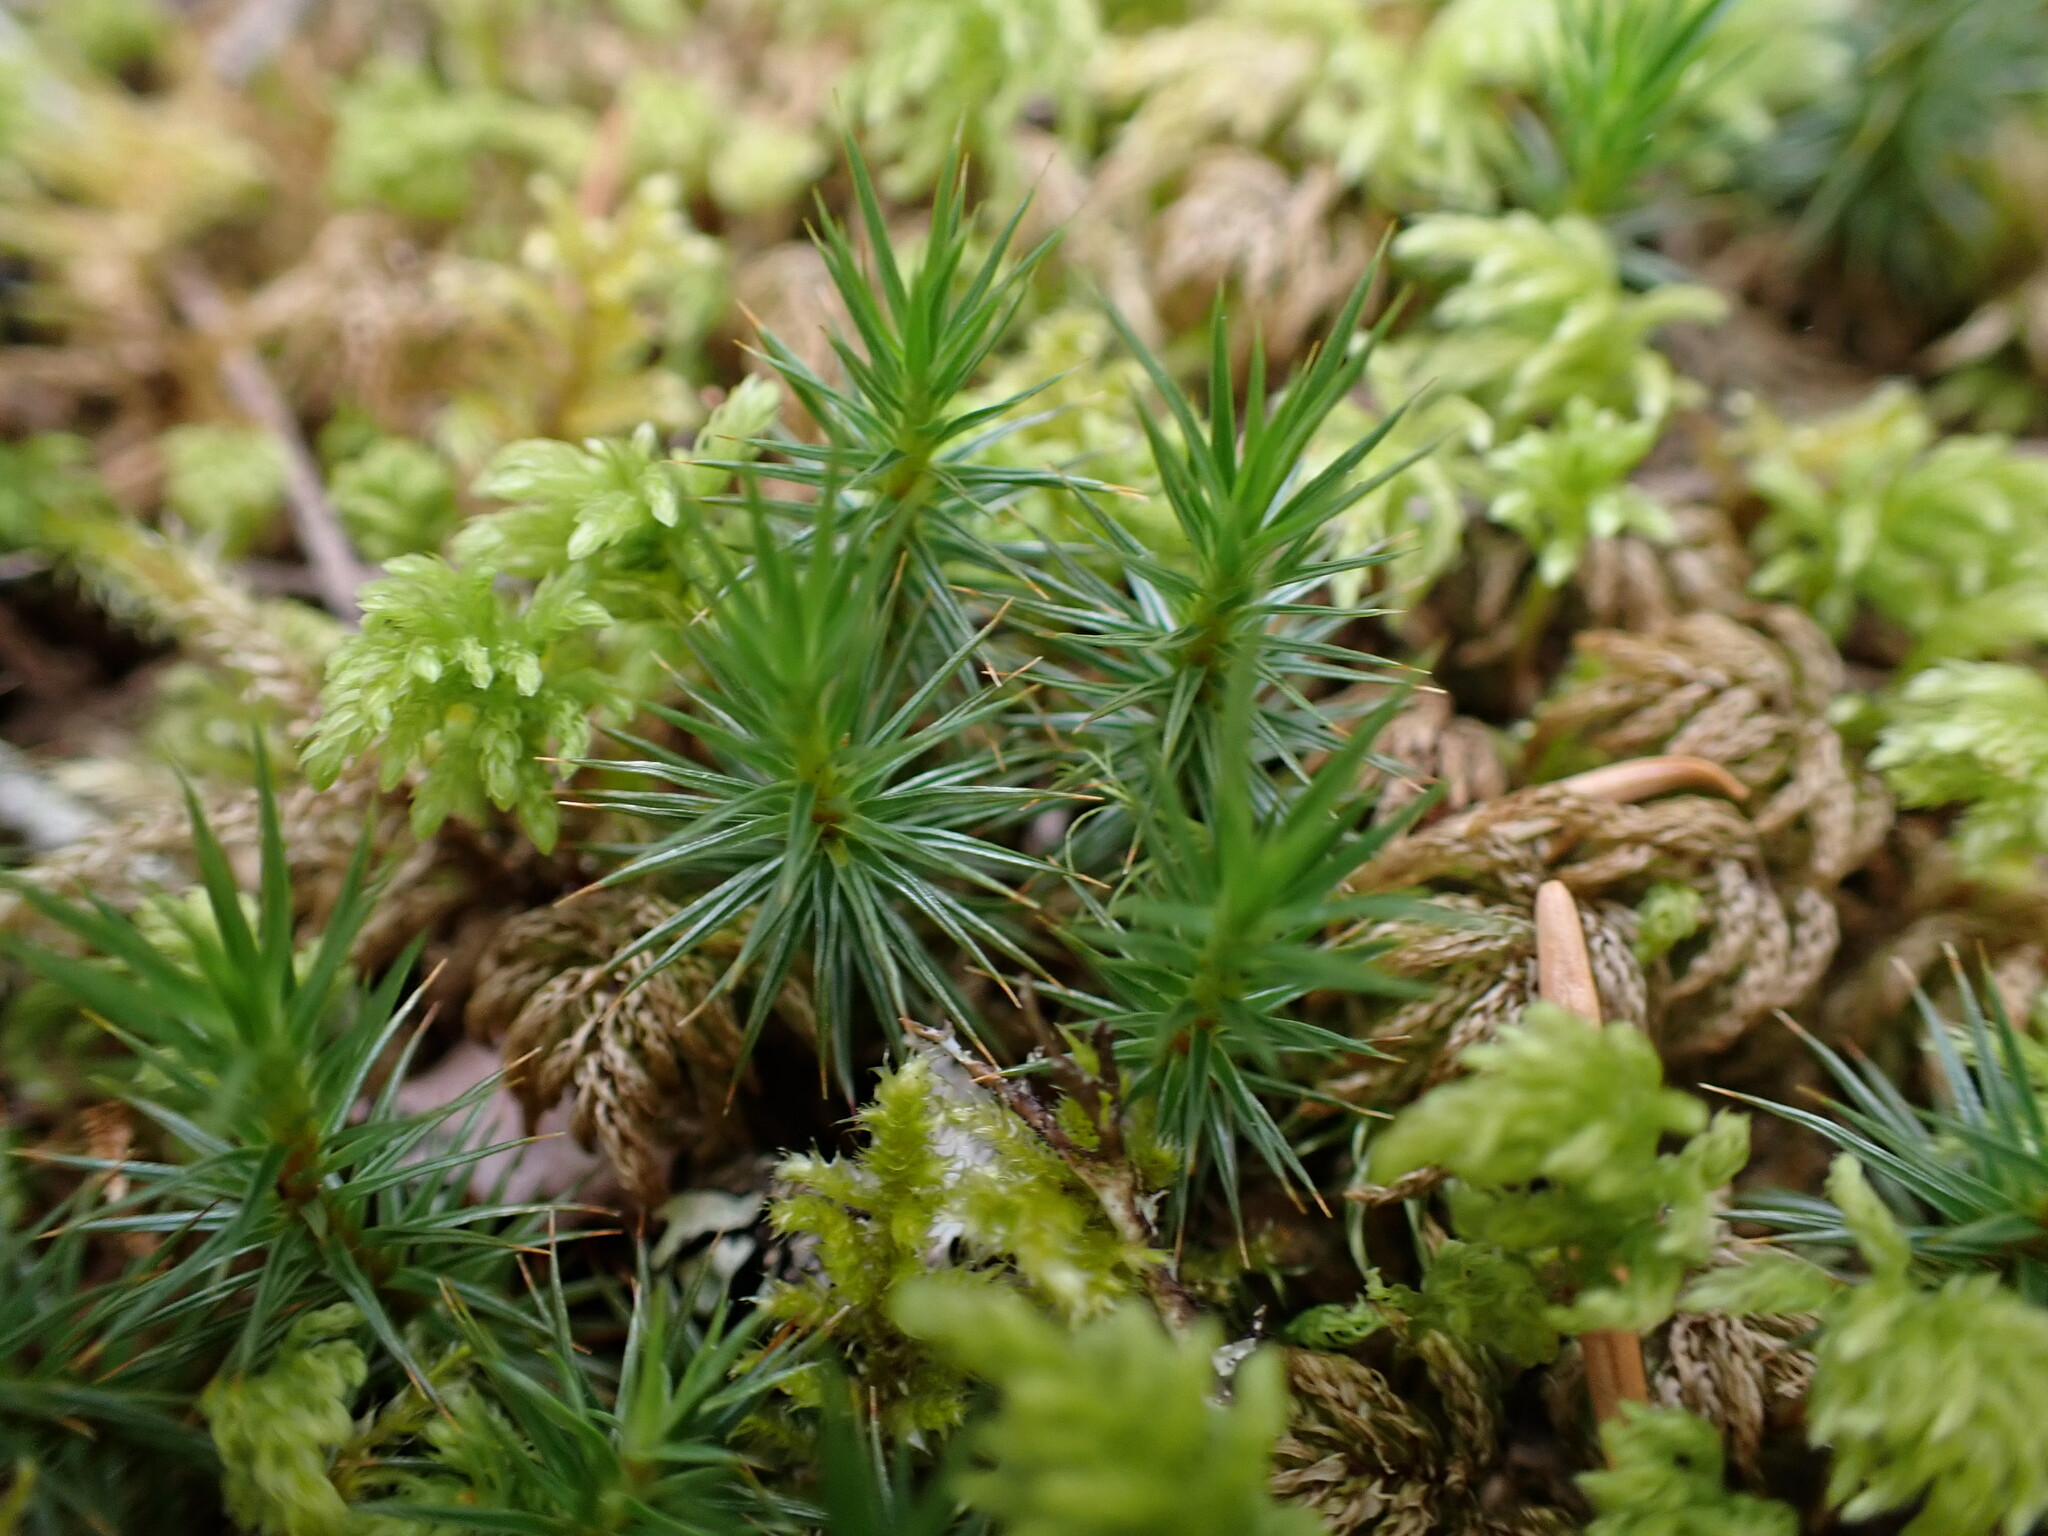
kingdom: Plantae
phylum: Bryophyta
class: Polytrichopsida
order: Polytrichales
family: Polytrichaceae
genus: Polytrichum
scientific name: Polytrichum juniperinum
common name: Juniper haircap moss
